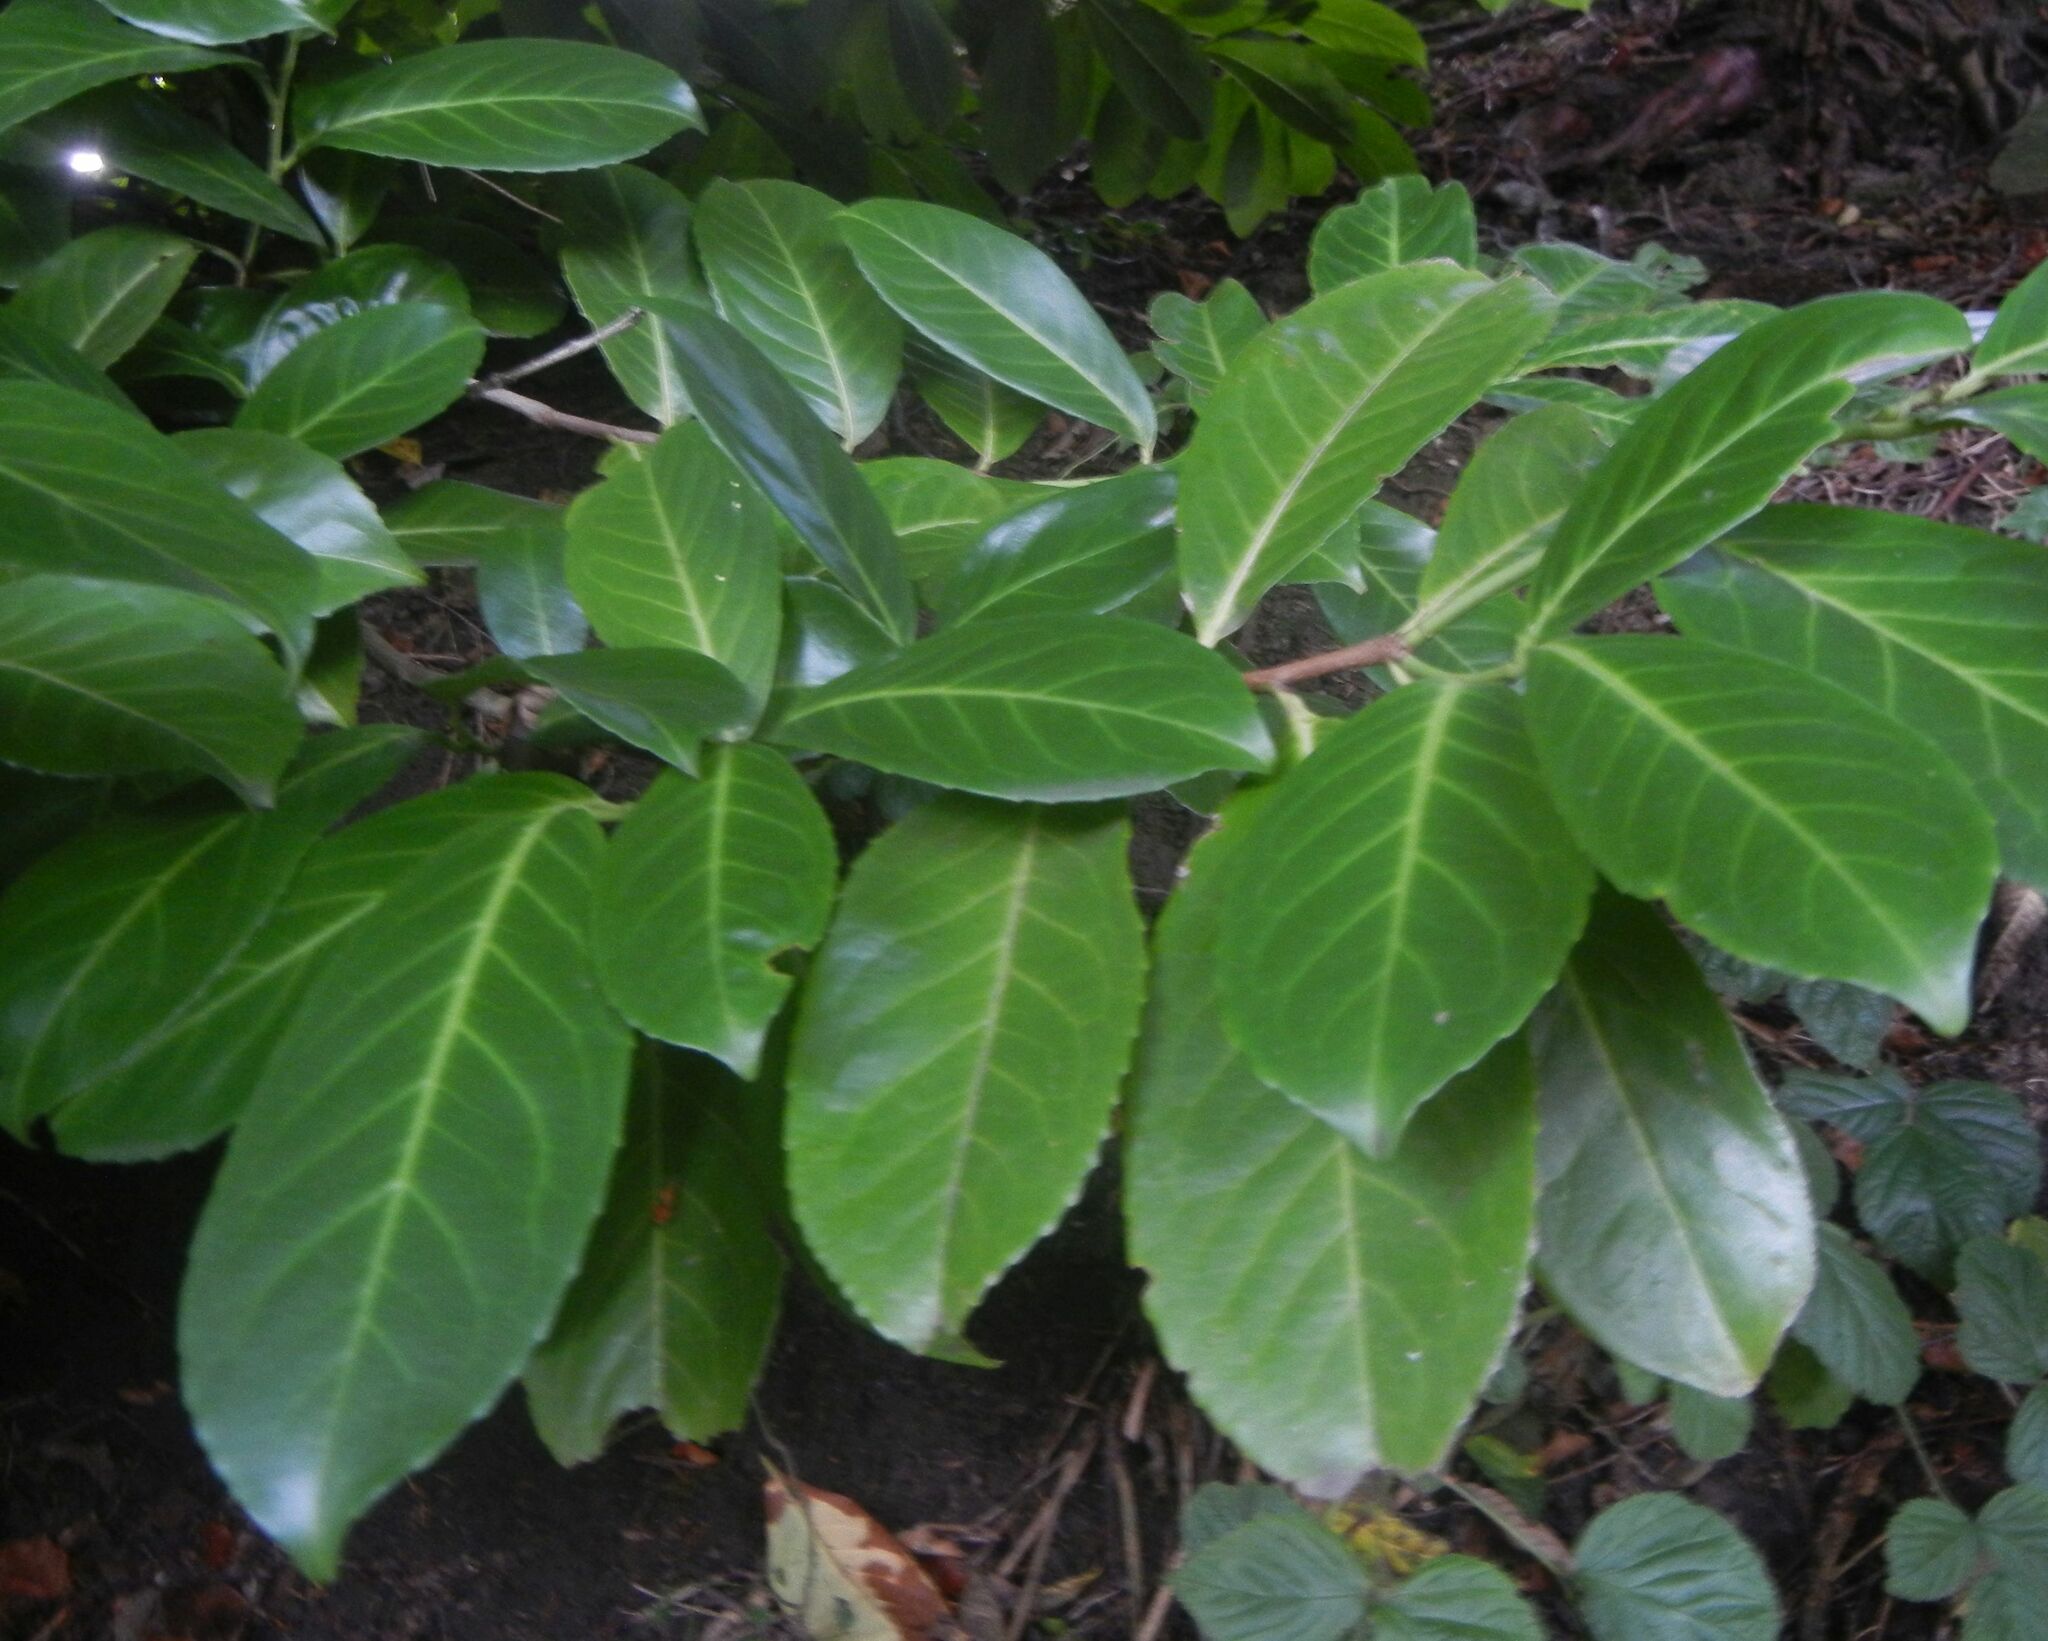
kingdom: Plantae
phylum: Tracheophyta
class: Magnoliopsida
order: Rosales
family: Rosaceae
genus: Prunus
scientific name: Prunus laurocerasus
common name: Cherry laurel
